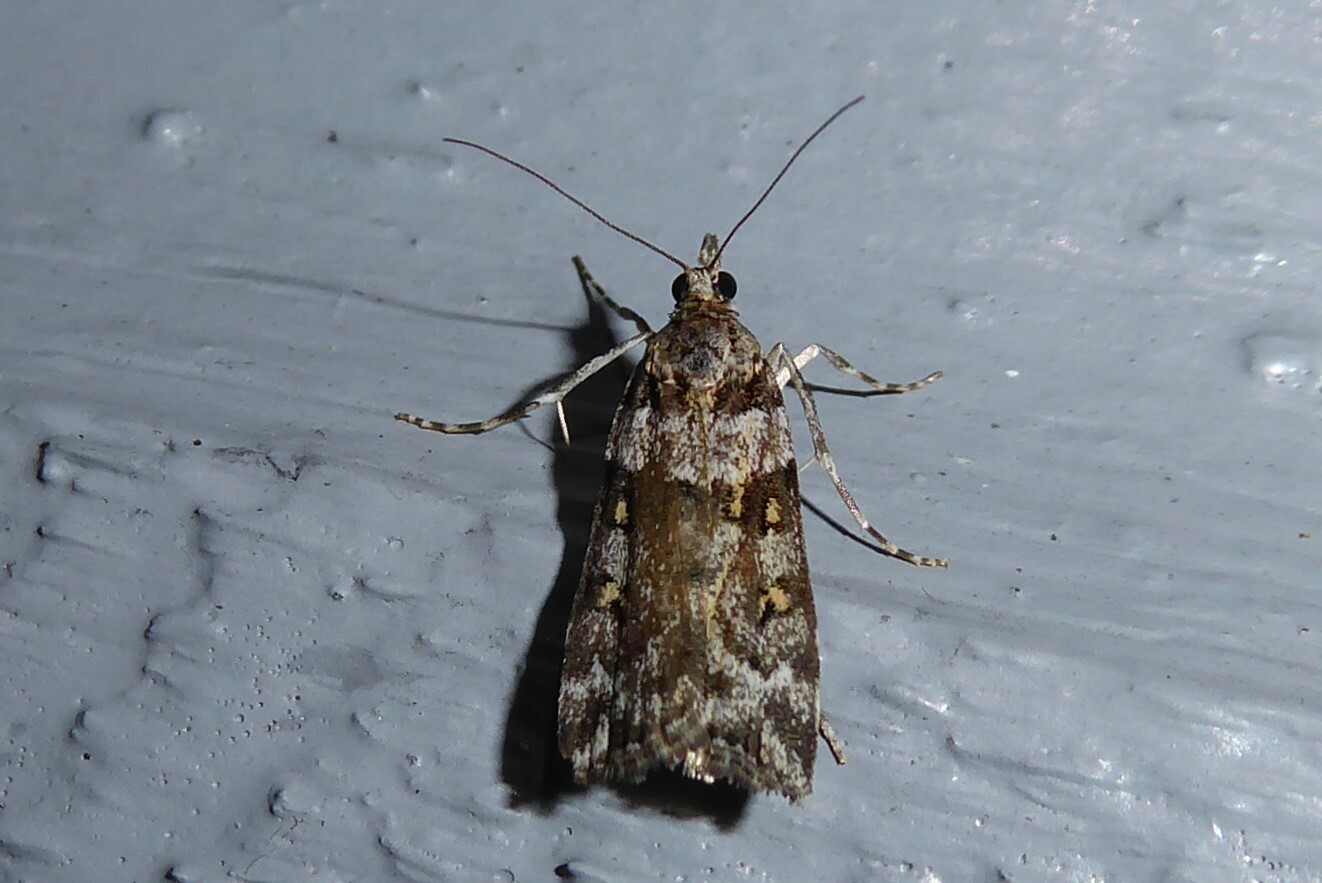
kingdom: Animalia
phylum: Arthropoda
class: Insecta
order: Lepidoptera
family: Crambidae
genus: Scoparia
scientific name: Scoparia tetracycla
